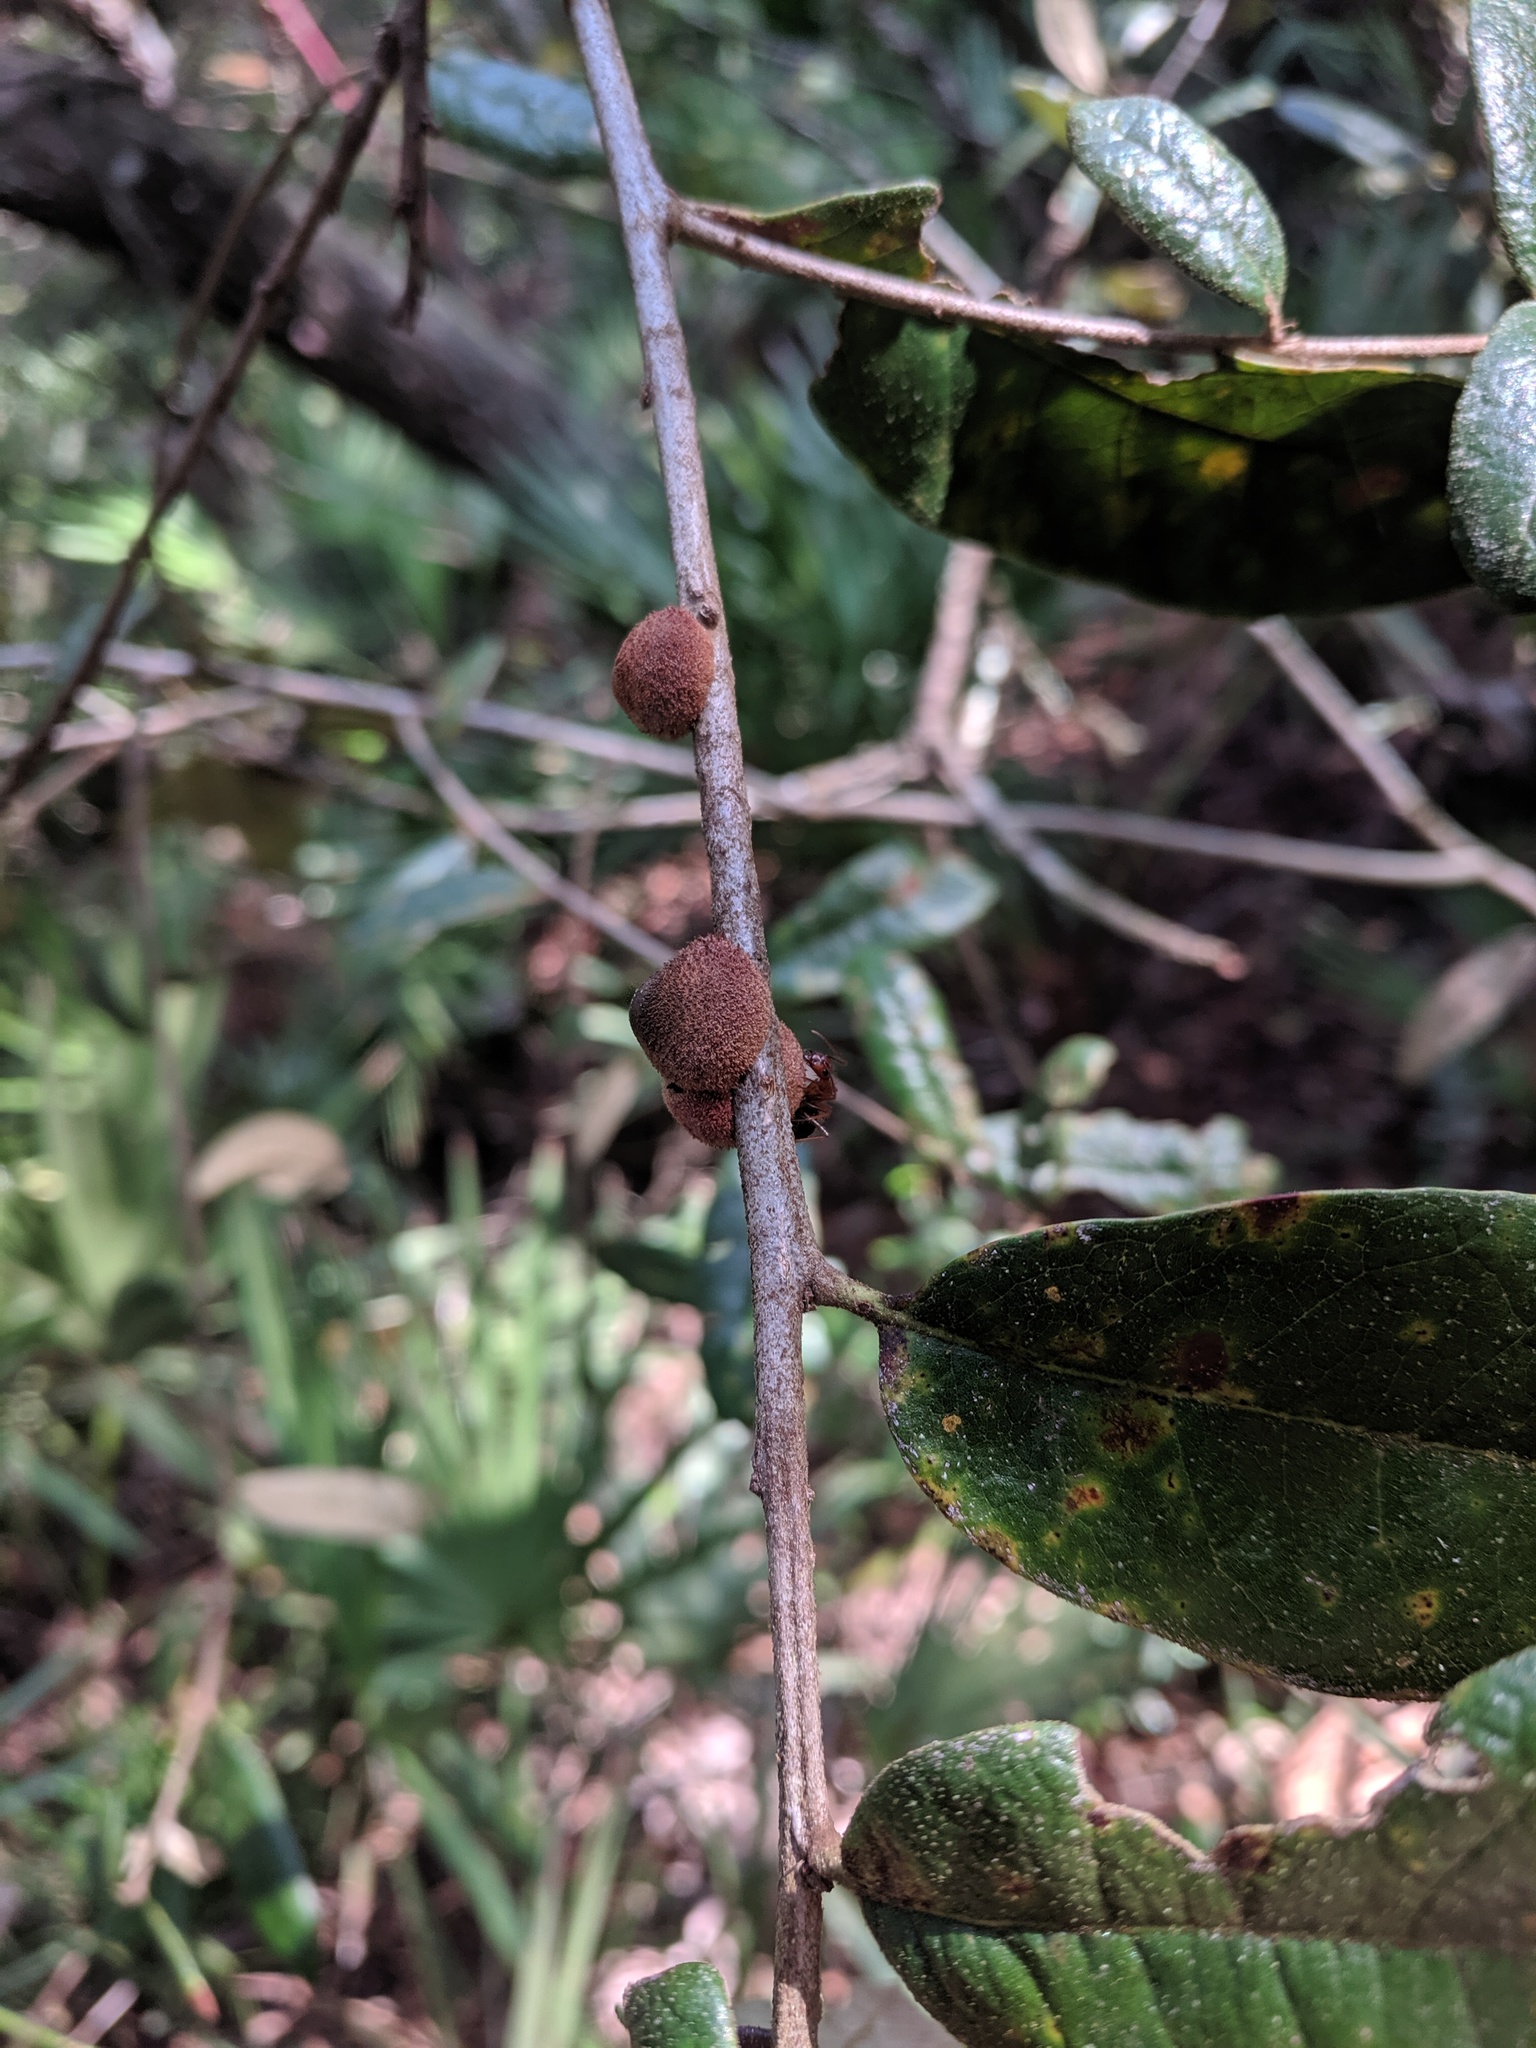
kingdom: Animalia
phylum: Arthropoda
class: Insecta
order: Hymenoptera
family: Cynipidae
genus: Disholcaspis
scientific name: Disholcaspis
